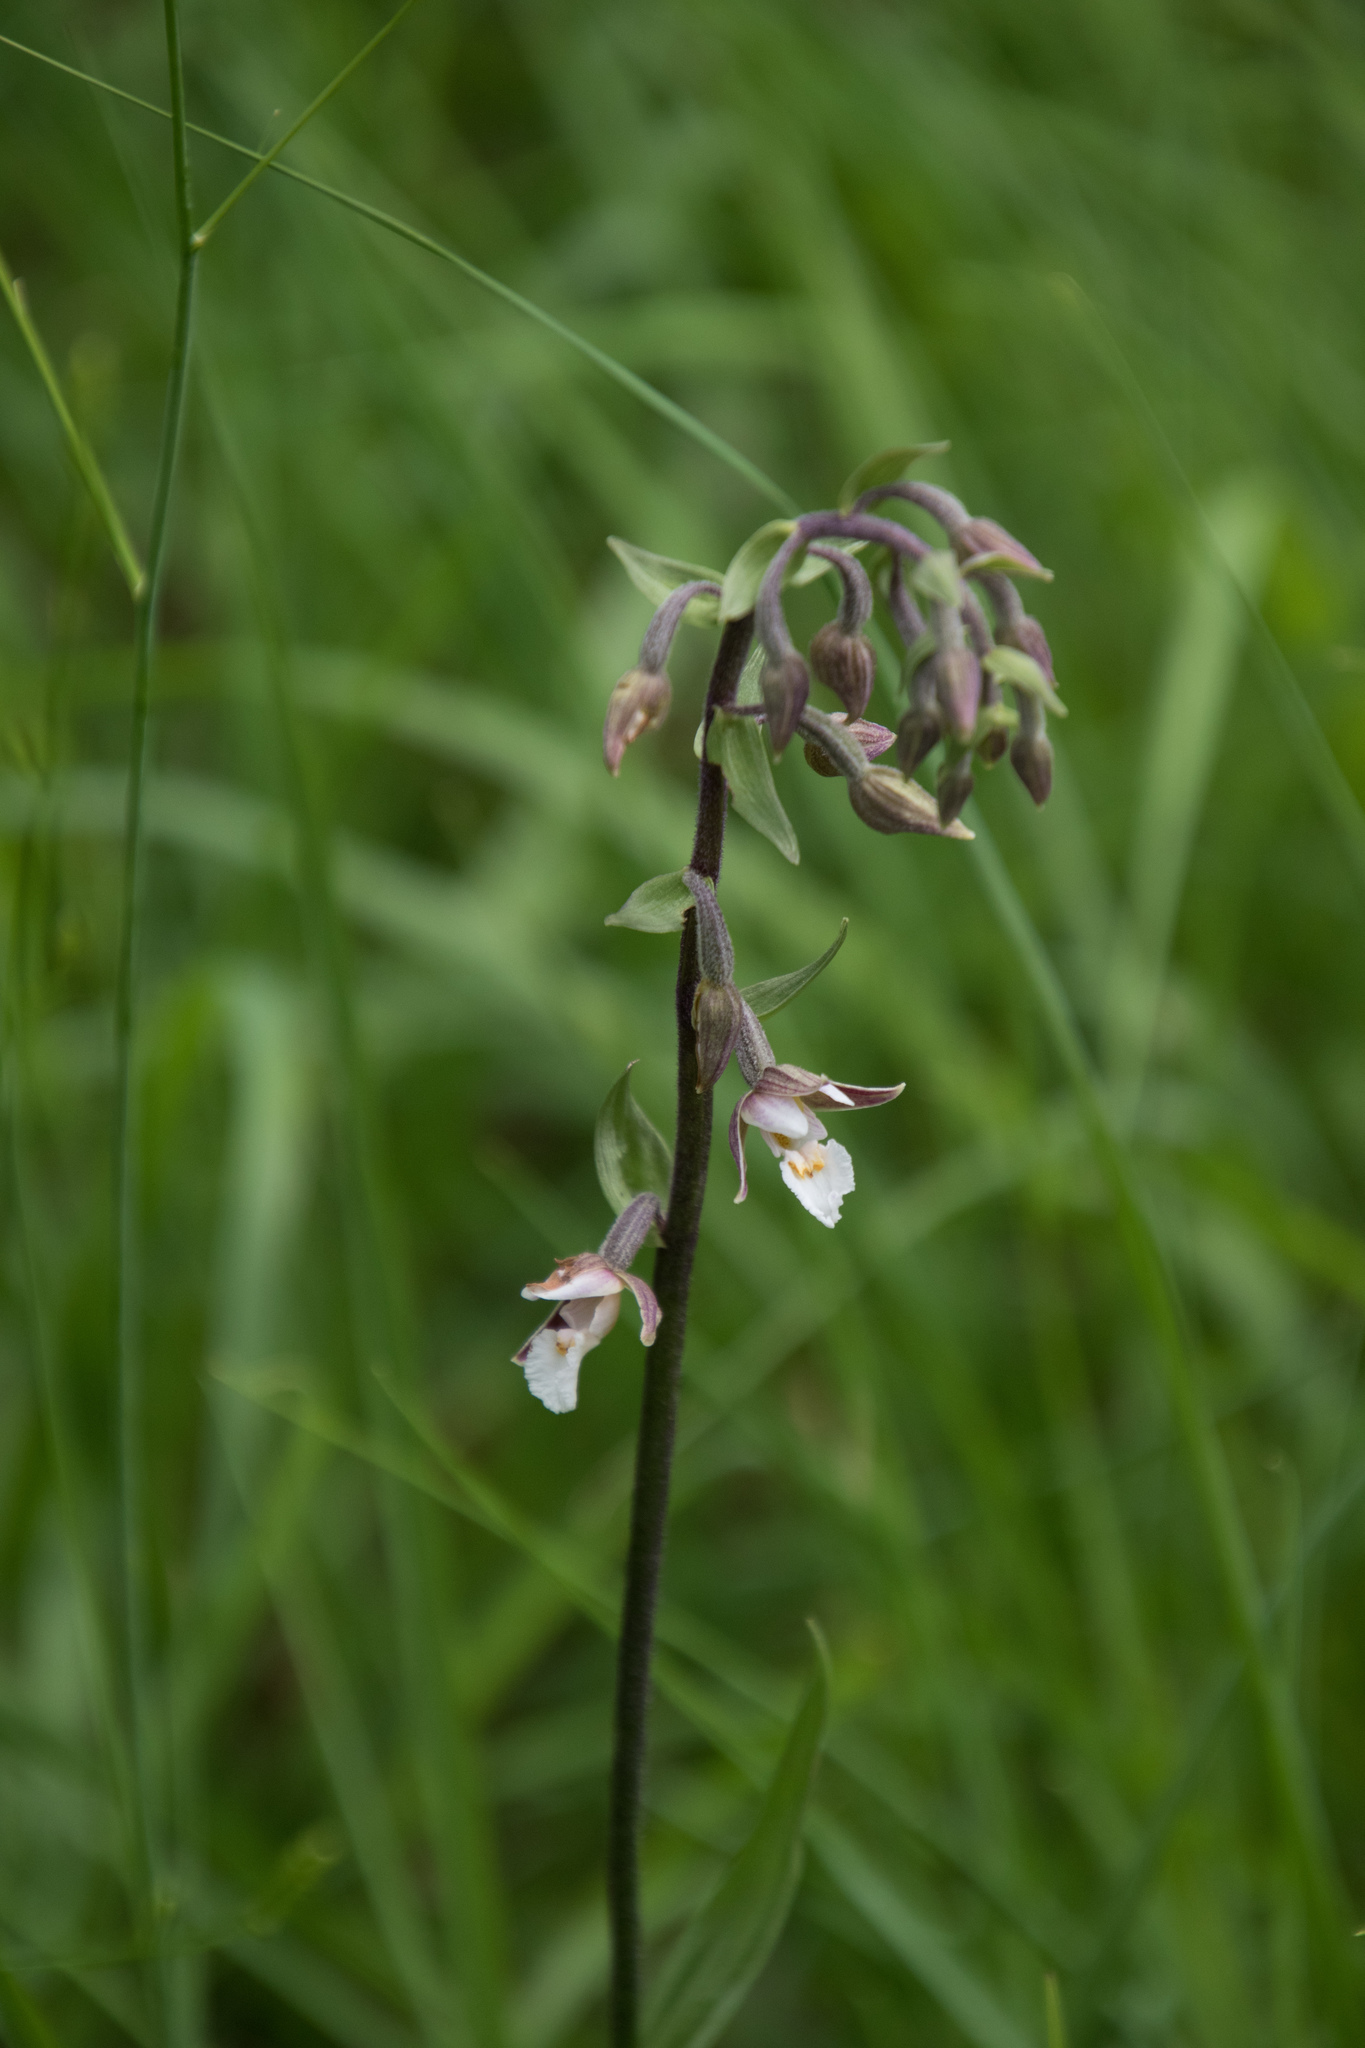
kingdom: Plantae
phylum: Tracheophyta
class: Liliopsida
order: Asparagales
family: Orchidaceae
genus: Epipactis
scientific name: Epipactis palustris
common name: Marsh helleborine
